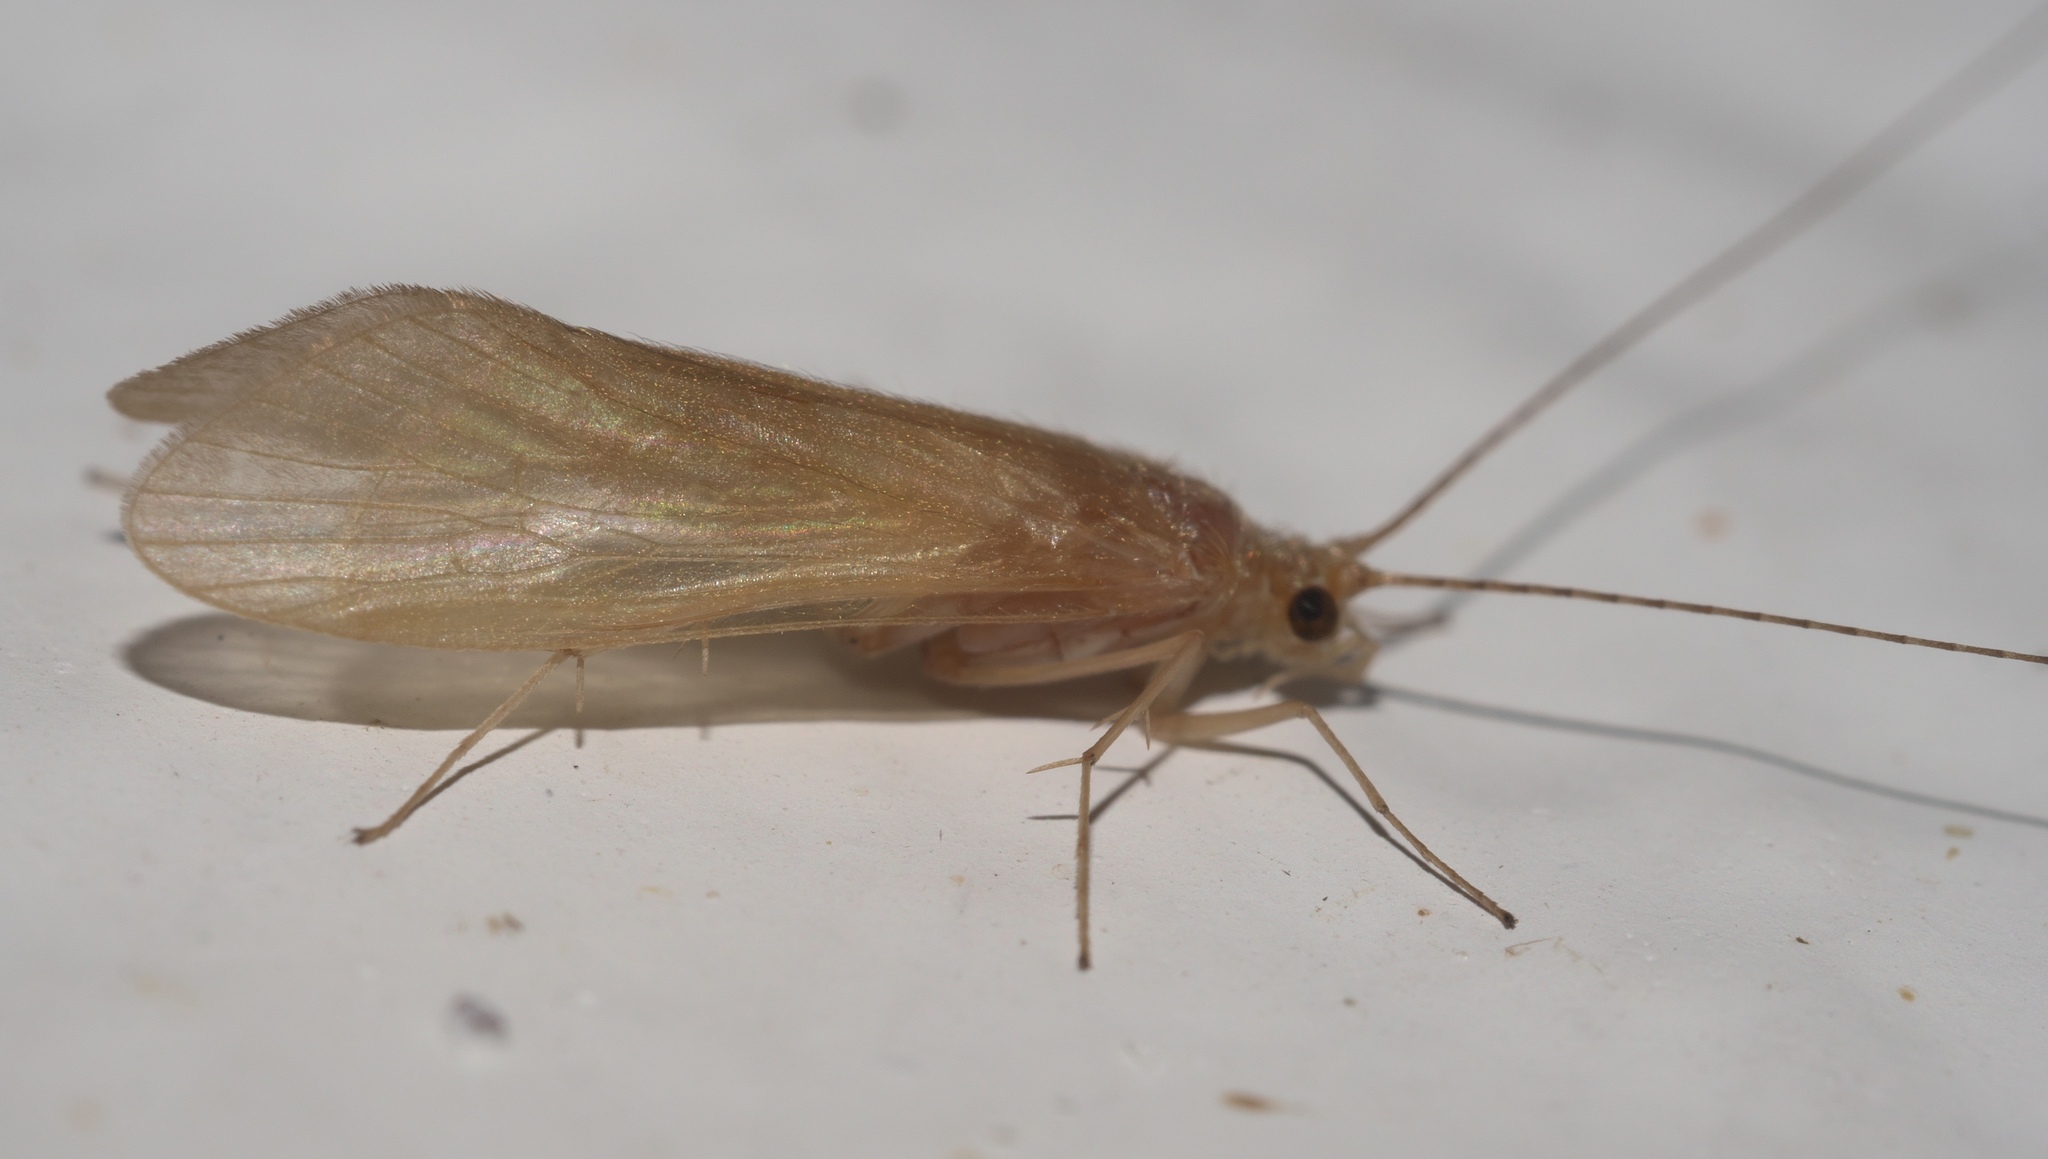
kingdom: Animalia
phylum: Arthropoda
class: Insecta
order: Trichoptera
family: Hydropsychidae
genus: Potamyia
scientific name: Potamyia flava
